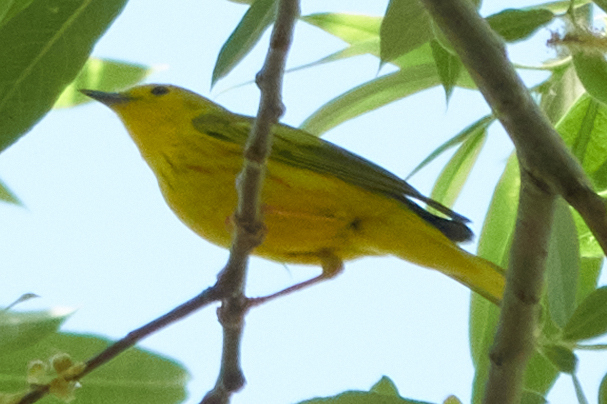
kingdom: Animalia
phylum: Chordata
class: Aves
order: Passeriformes
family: Parulidae
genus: Setophaga
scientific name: Setophaga petechia
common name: Yellow warbler
